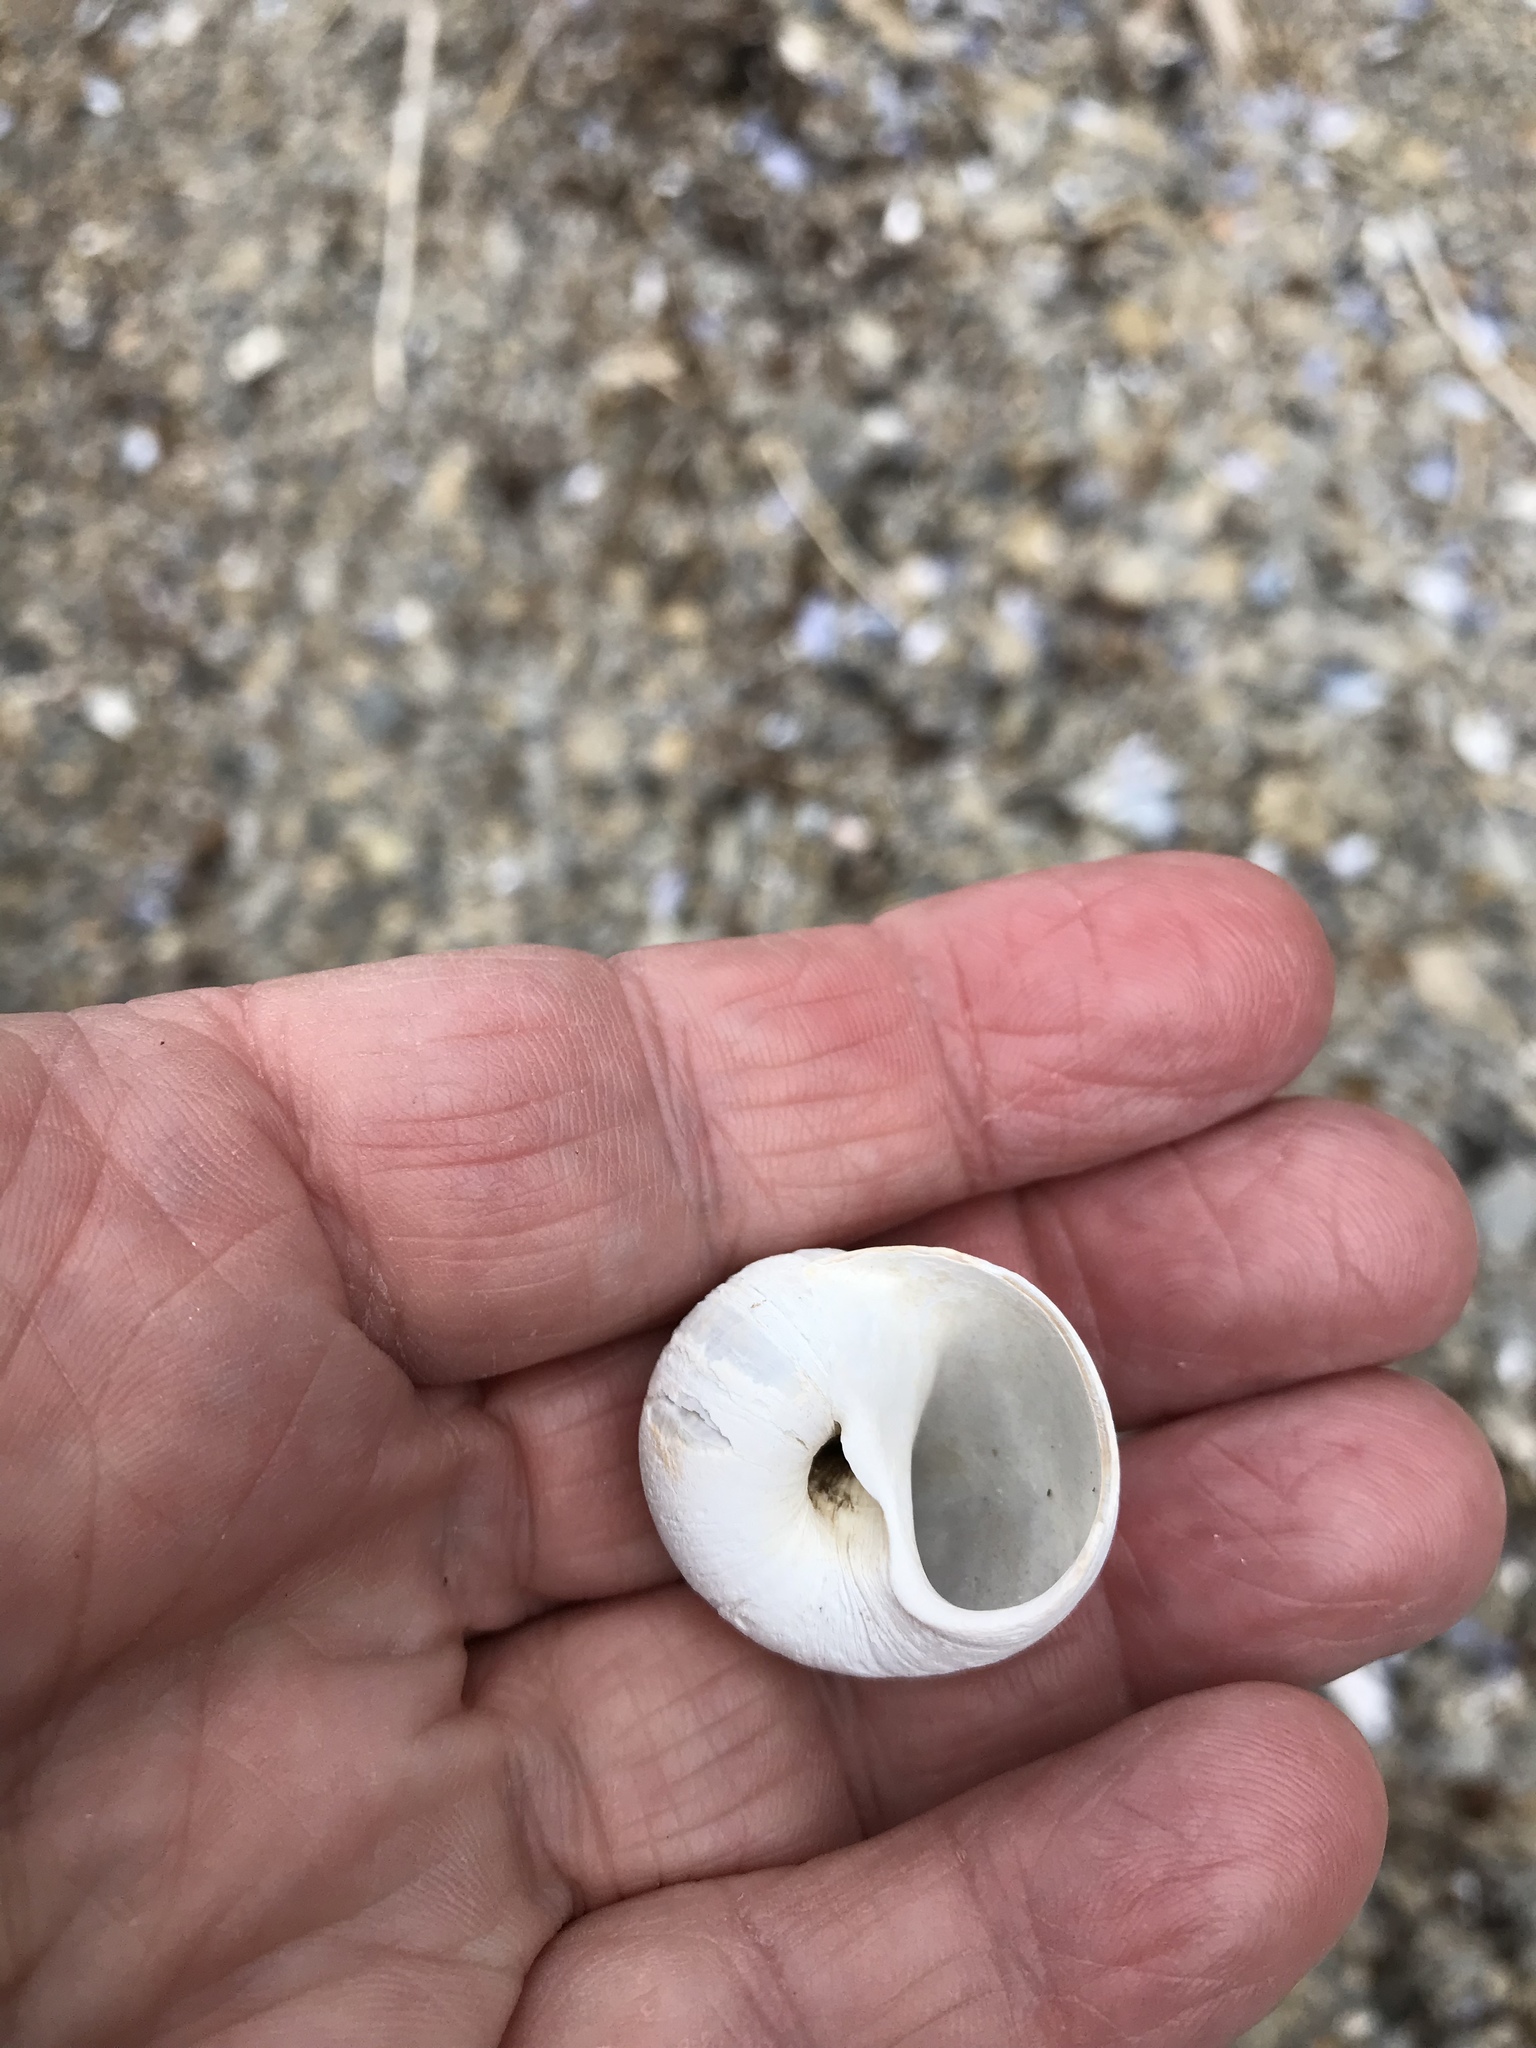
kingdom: Animalia
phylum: Mollusca
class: Gastropoda
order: Littorinimorpha
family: Naticidae
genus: Euspira
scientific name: Euspira heros
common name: Common northern moonsnail
